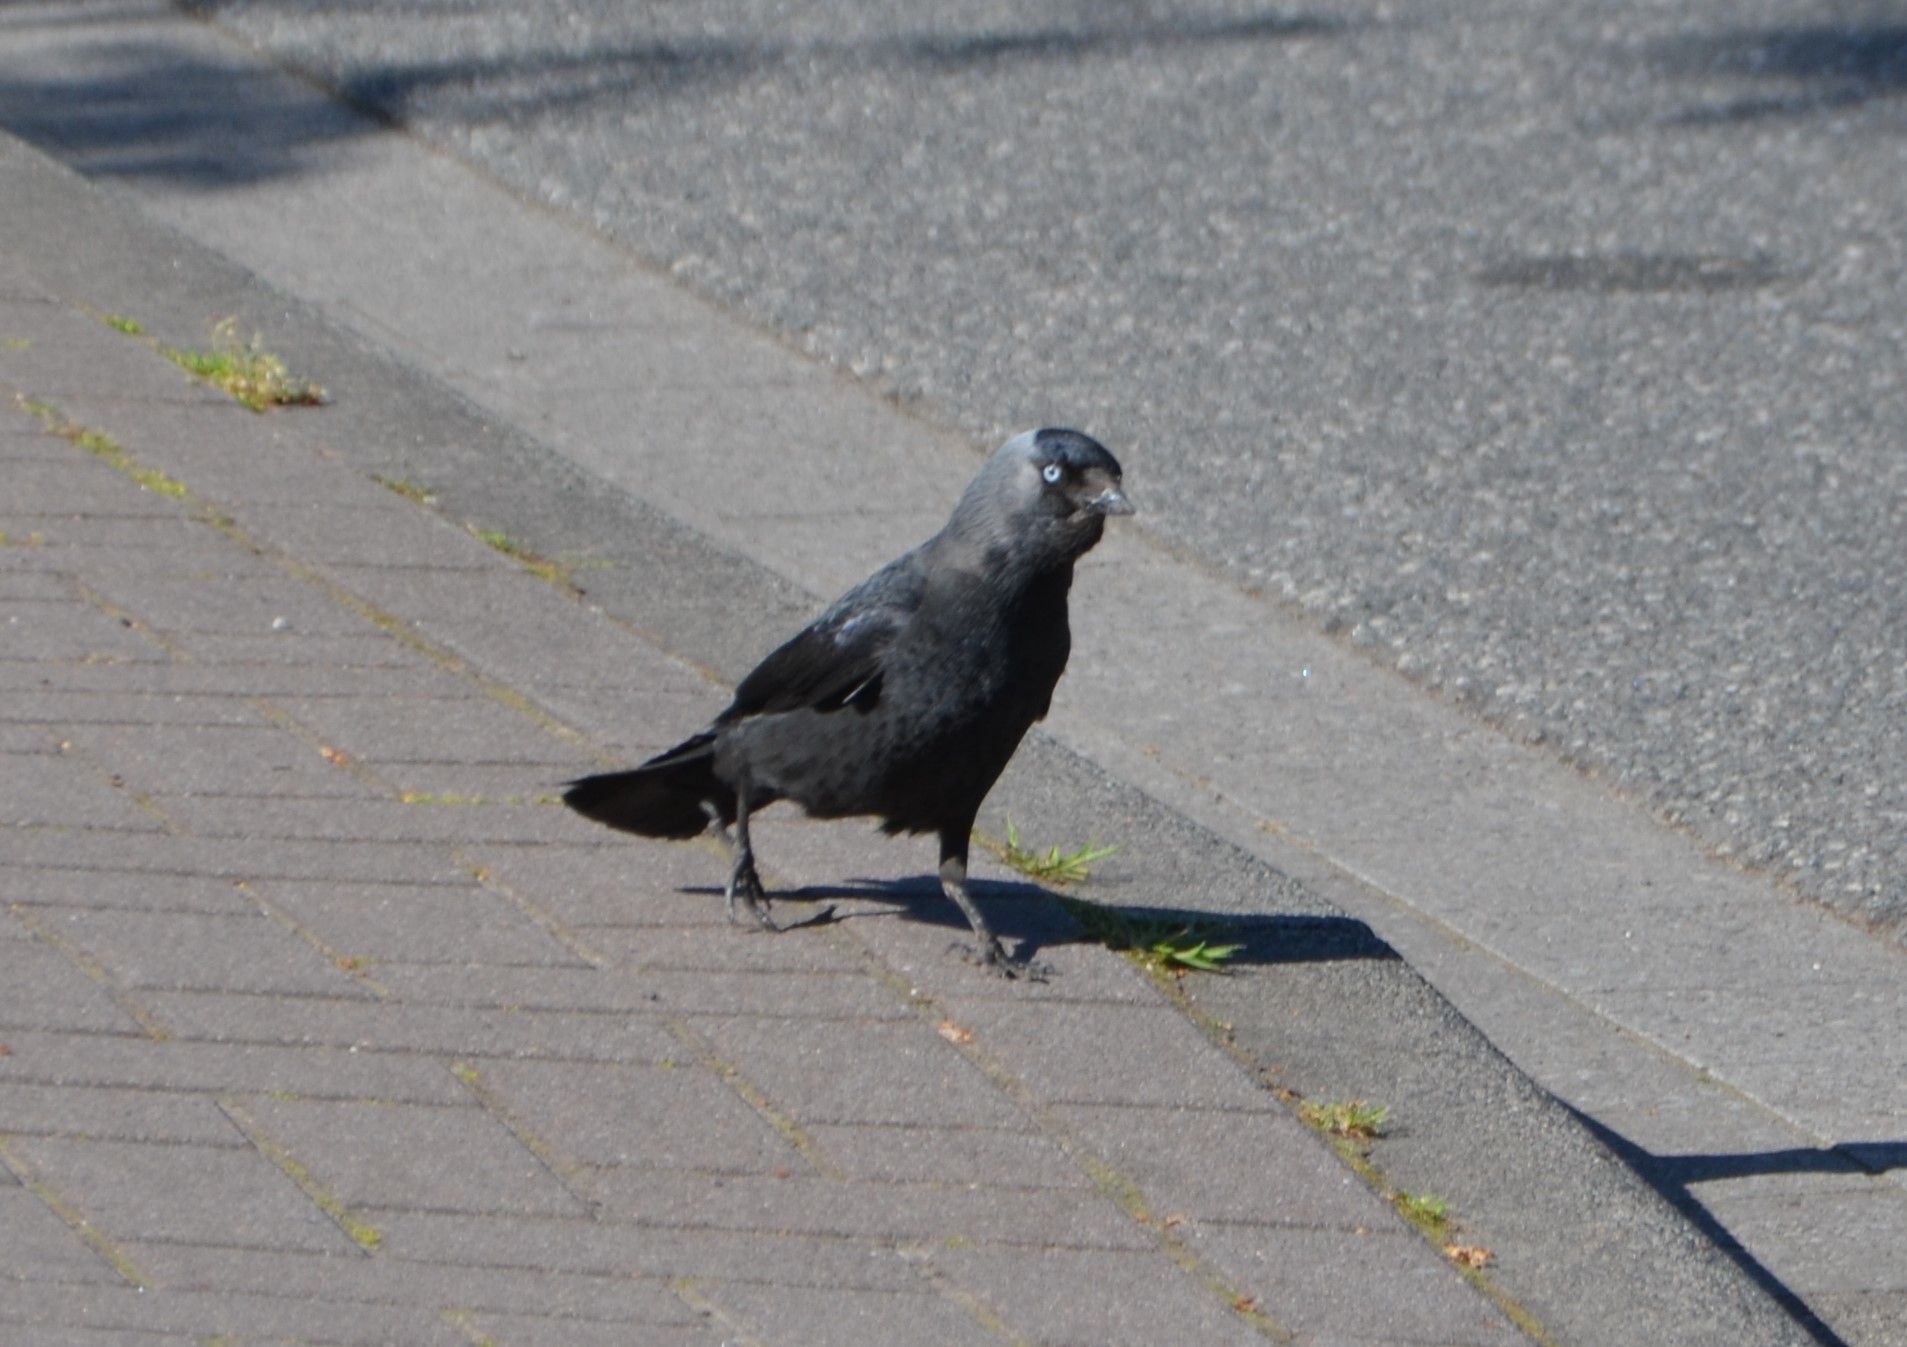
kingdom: Animalia
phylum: Chordata
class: Aves
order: Passeriformes
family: Corvidae
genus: Coloeus
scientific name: Coloeus monedula
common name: Western jackdaw
